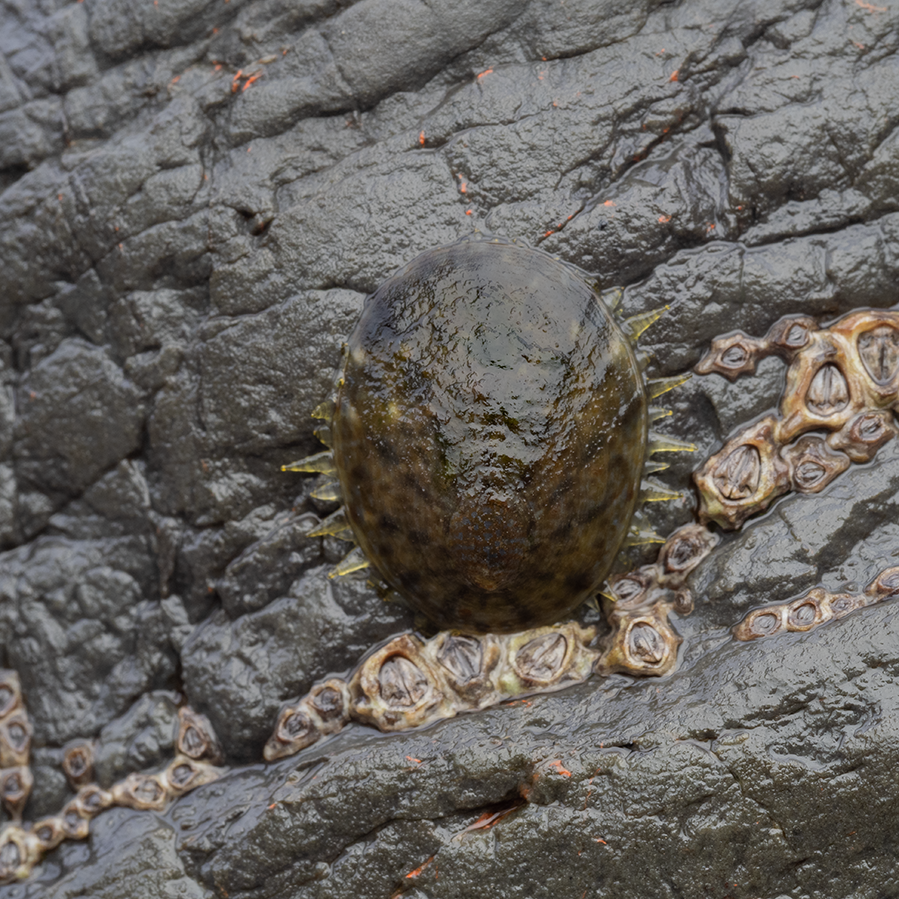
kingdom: Animalia
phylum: Mollusca
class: Gastropoda
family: Nacellidae
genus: Cellana
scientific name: Cellana radians
